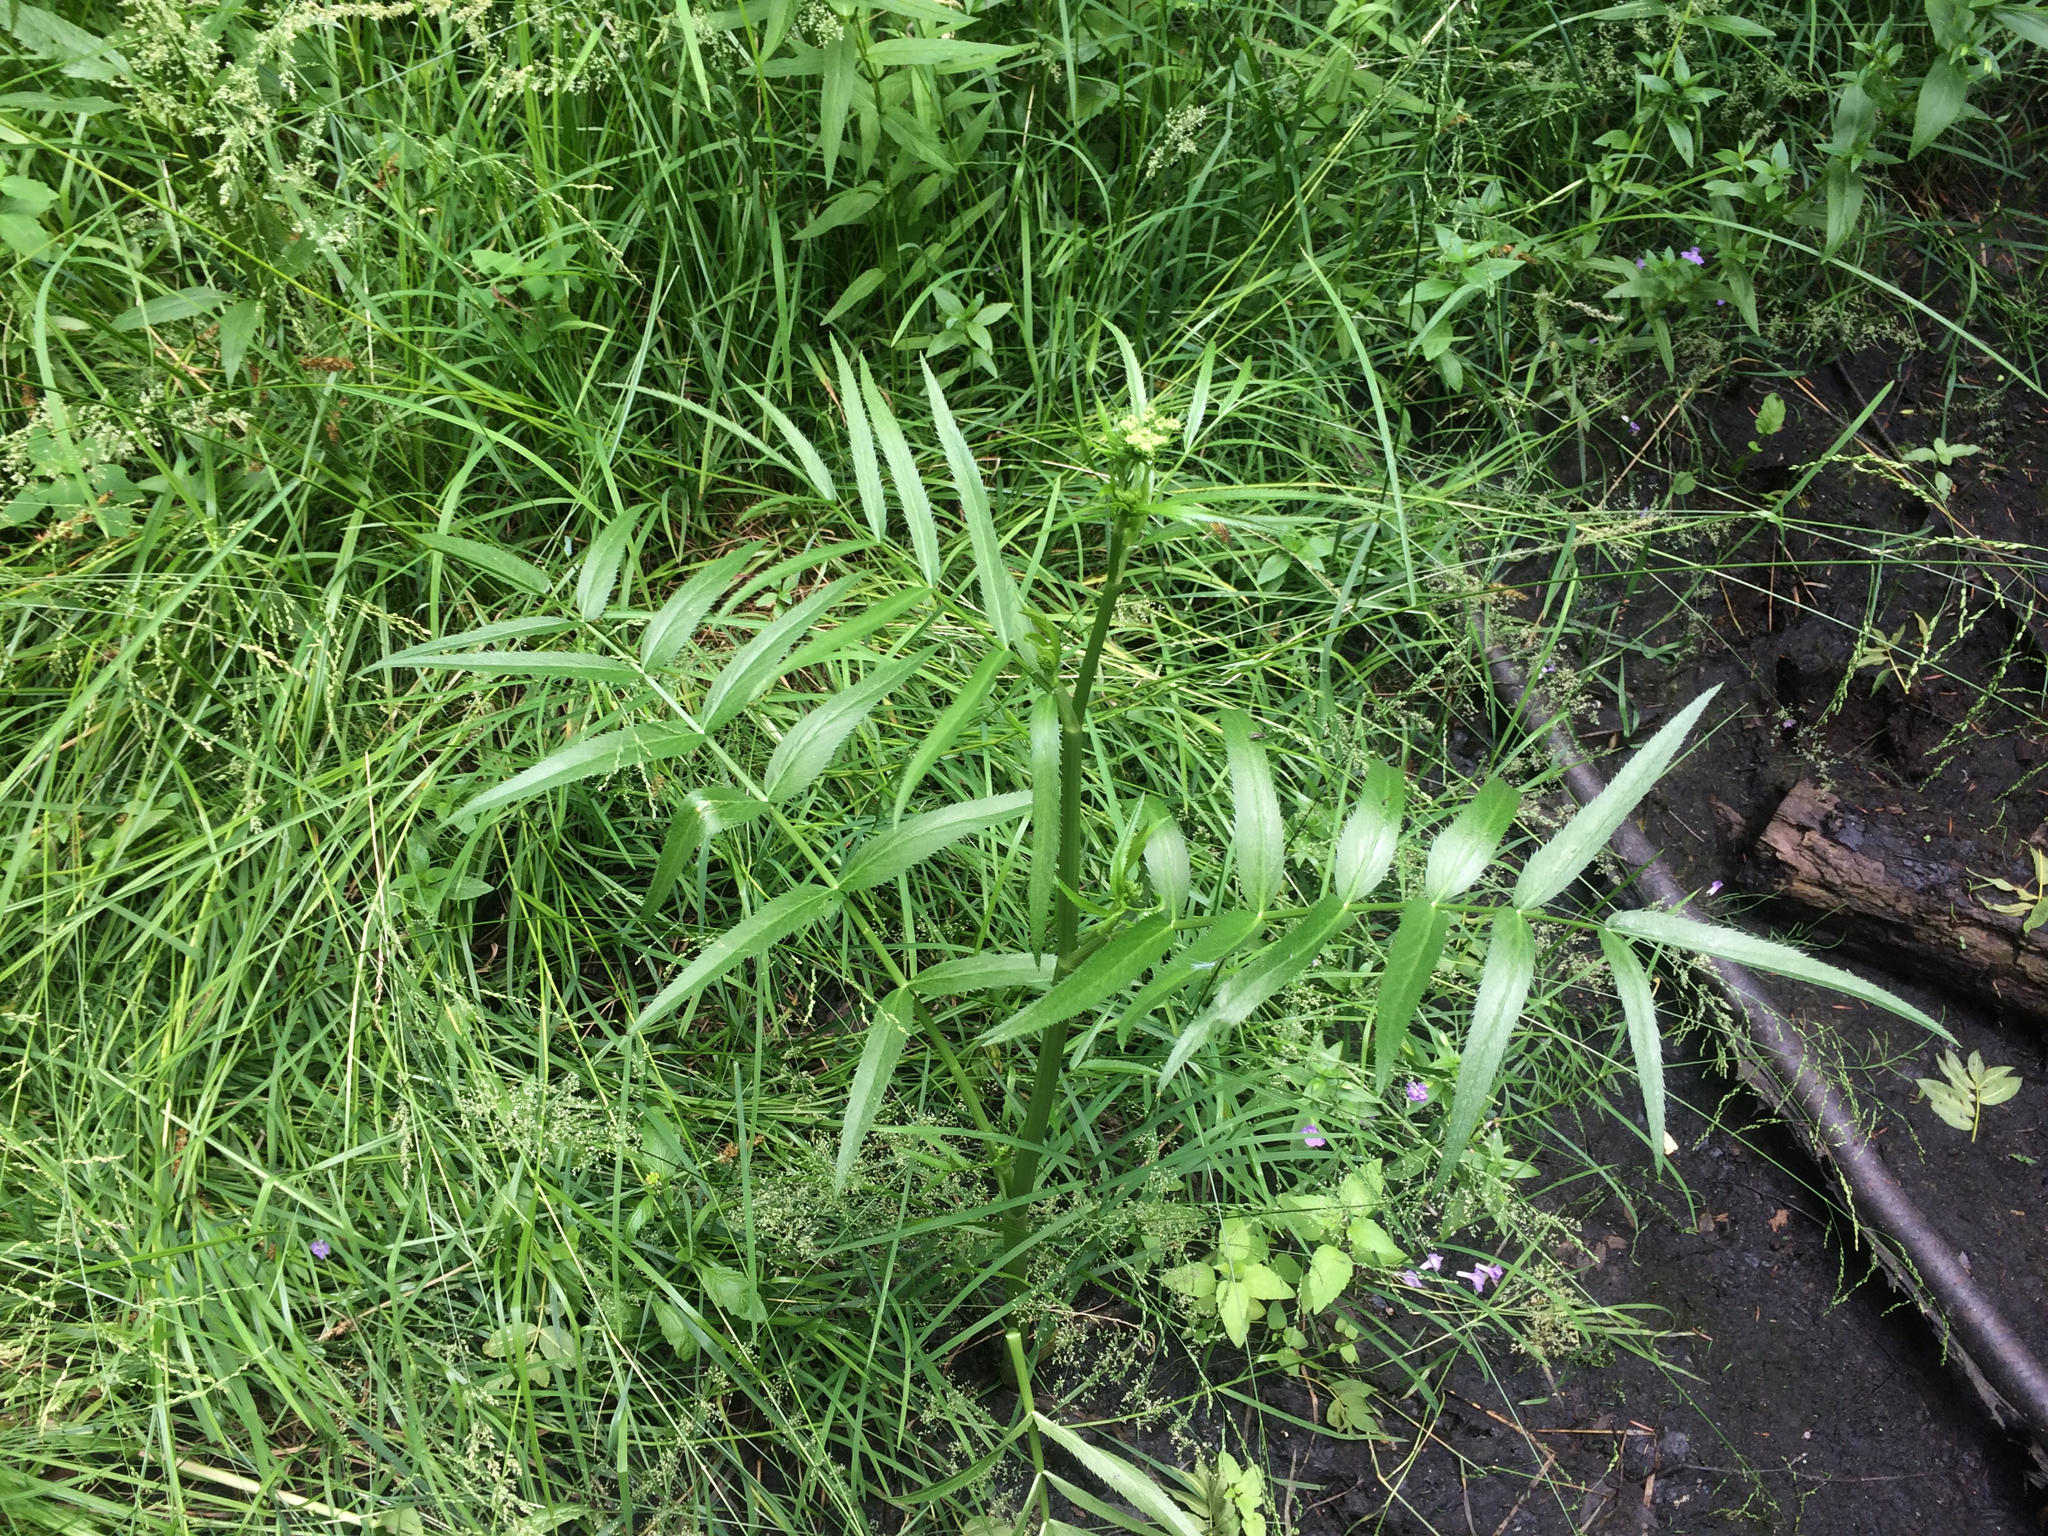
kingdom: Plantae
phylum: Tracheophyta
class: Magnoliopsida
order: Apiales
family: Apiaceae
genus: Sium
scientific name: Sium suave
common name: Hemlock water-parsnip
